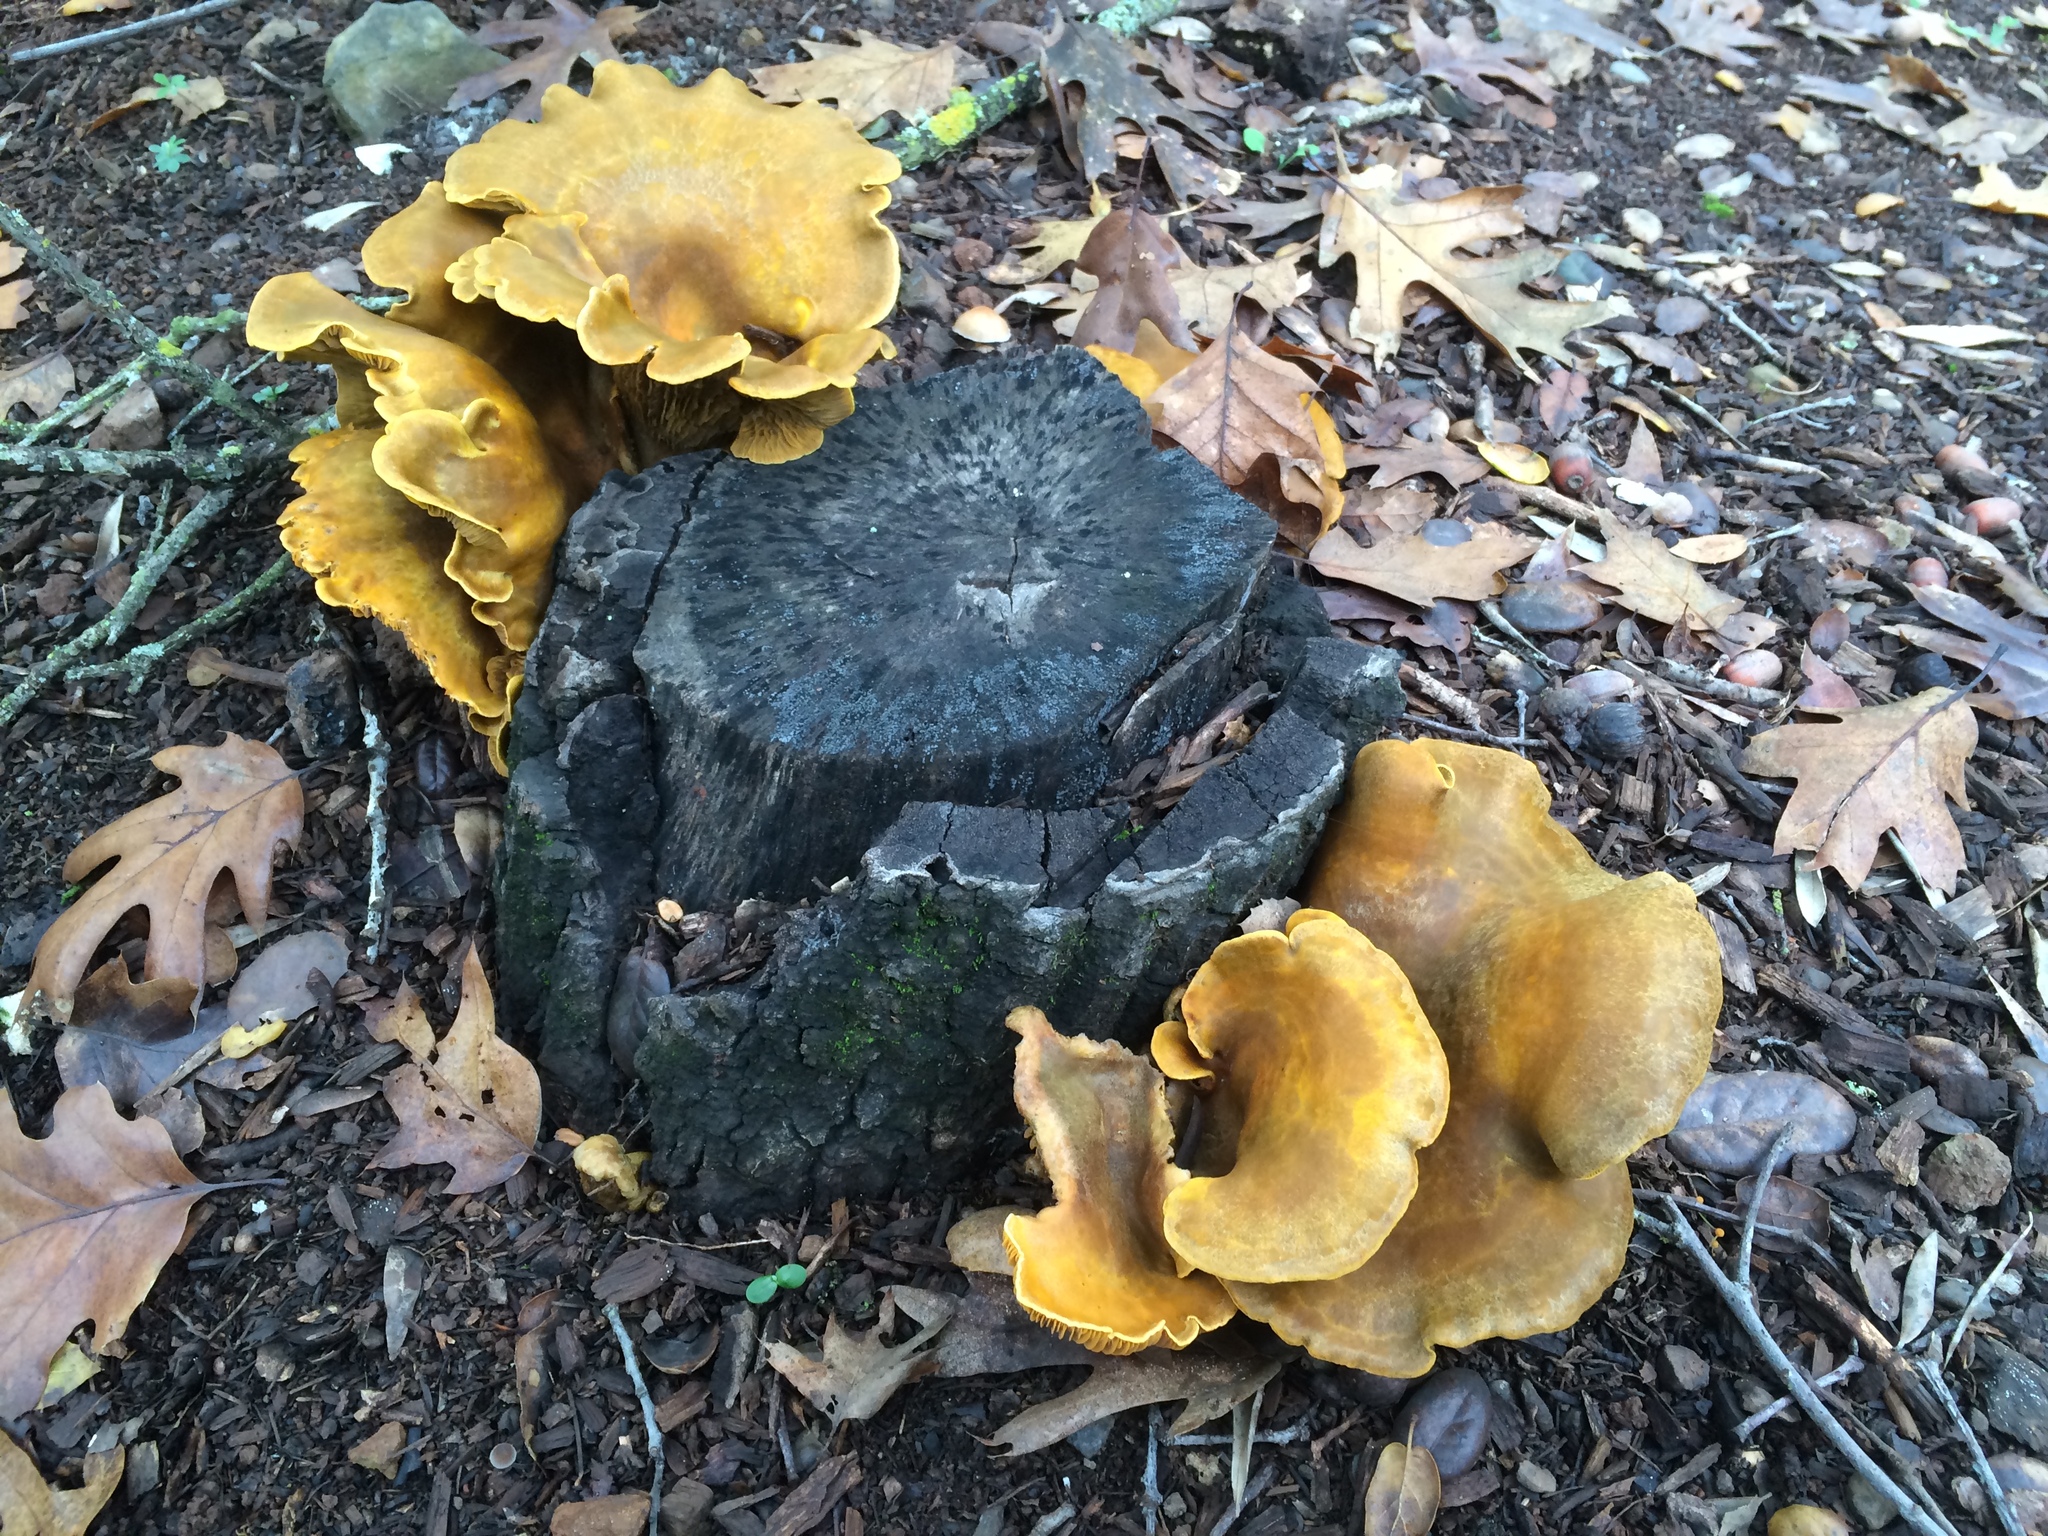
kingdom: Fungi
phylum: Basidiomycota
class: Agaricomycetes
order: Agaricales
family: Omphalotaceae
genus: Omphalotus
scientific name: Omphalotus olivascens
